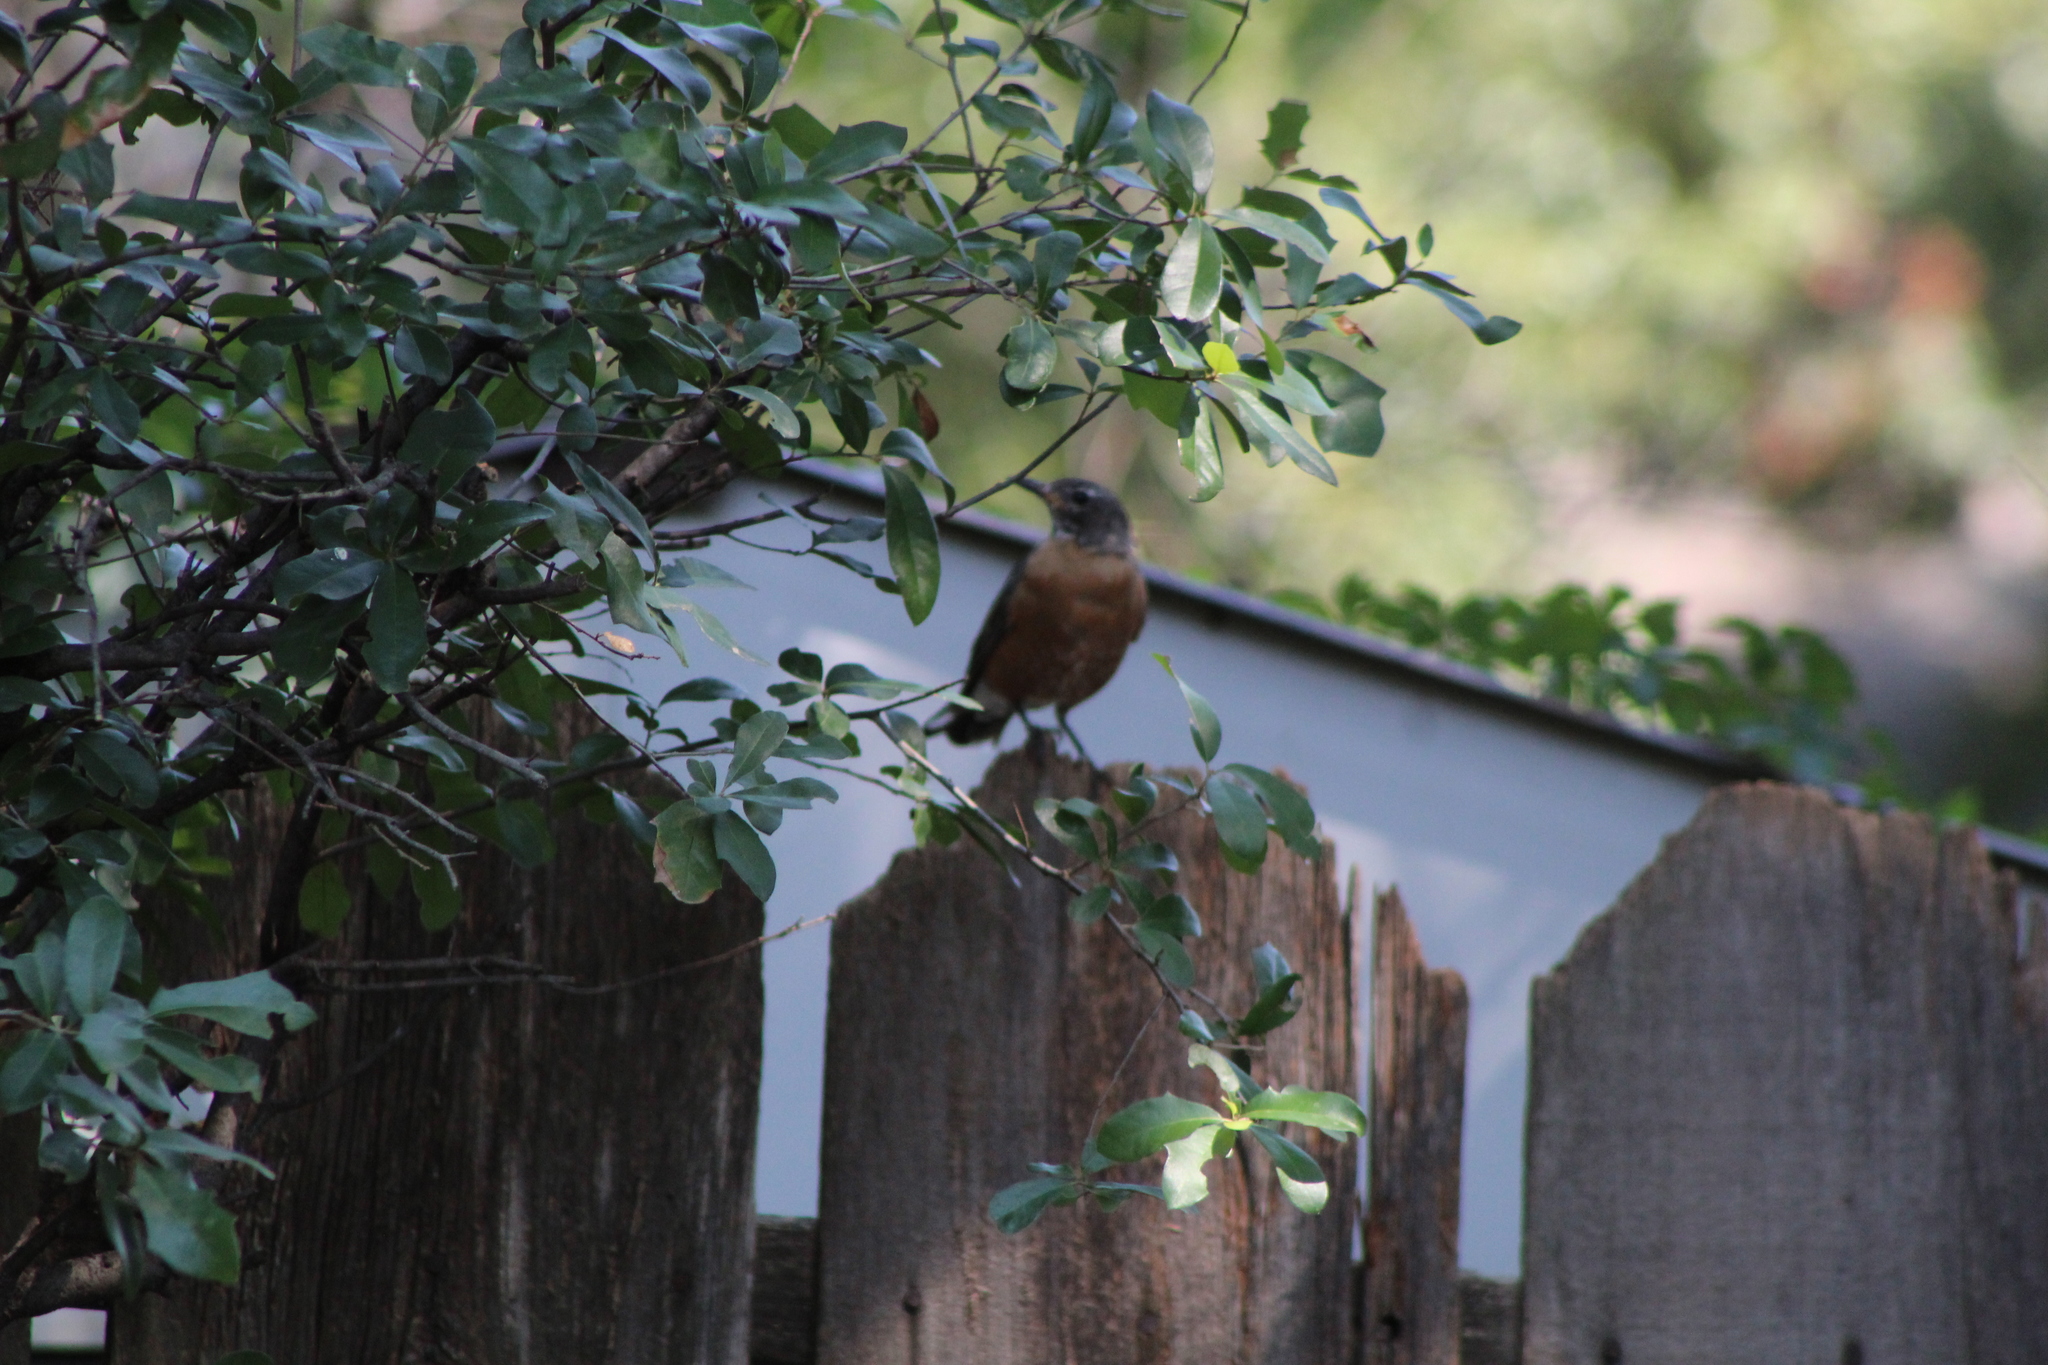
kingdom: Animalia
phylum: Chordata
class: Aves
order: Passeriformes
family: Turdidae
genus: Turdus
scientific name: Turdus migratorius
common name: American robin
